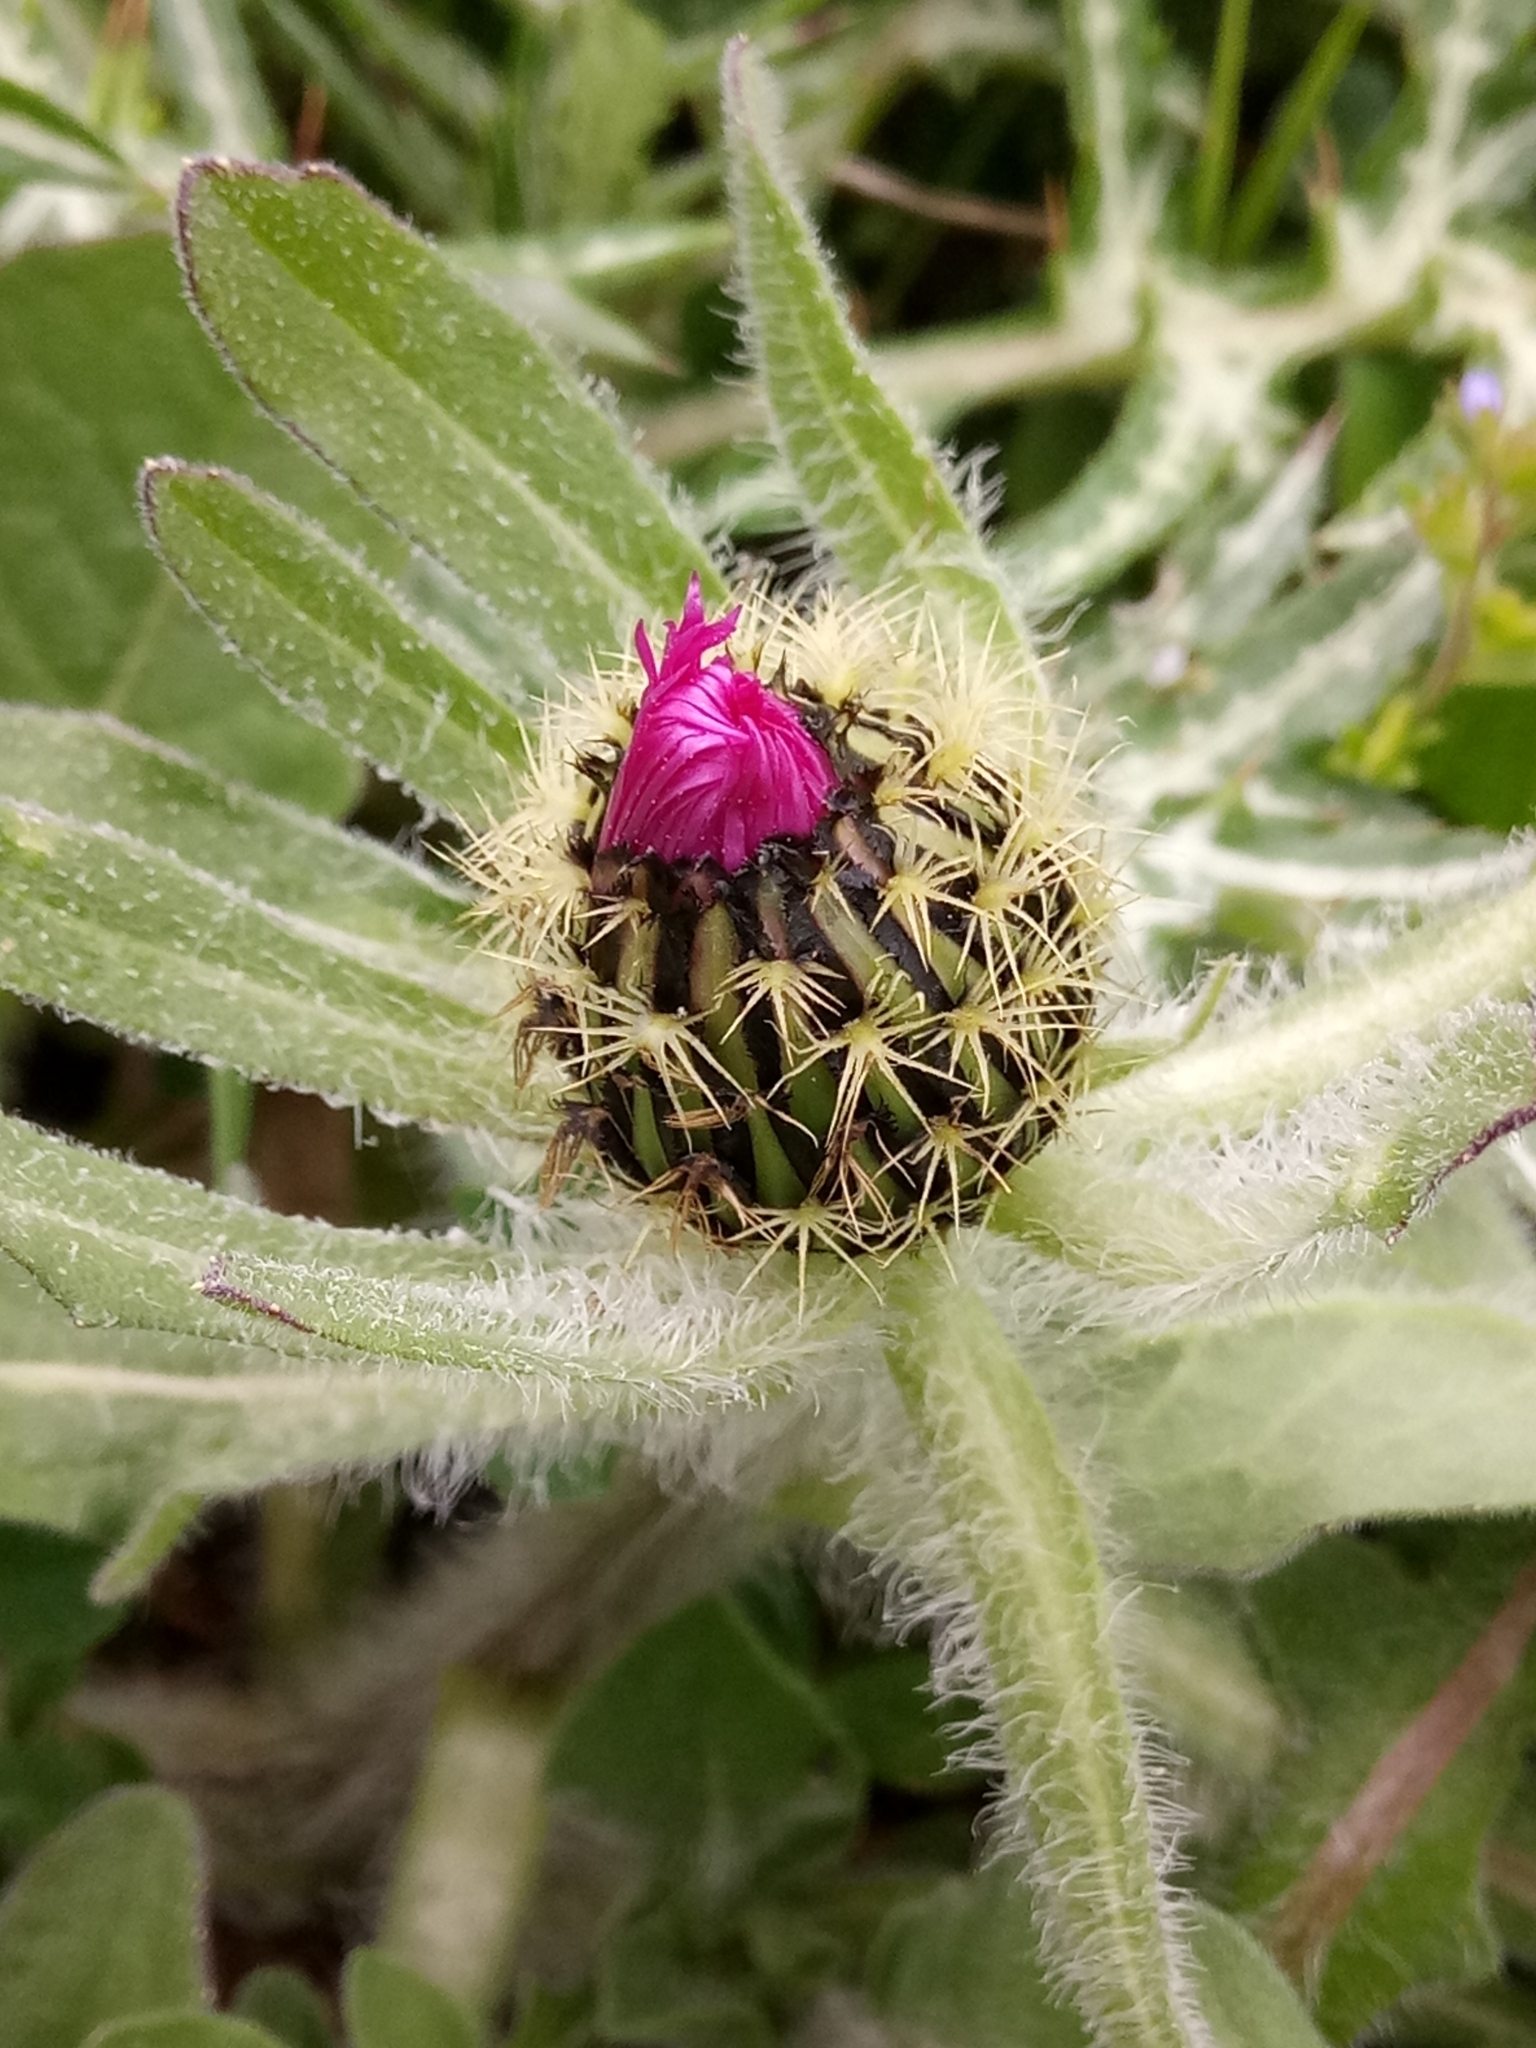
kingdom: Plantae
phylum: Tracheophyta
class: Magnoliopsida
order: Asterales
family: Asteraceae
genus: Centaurea
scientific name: Centaurea pullata
